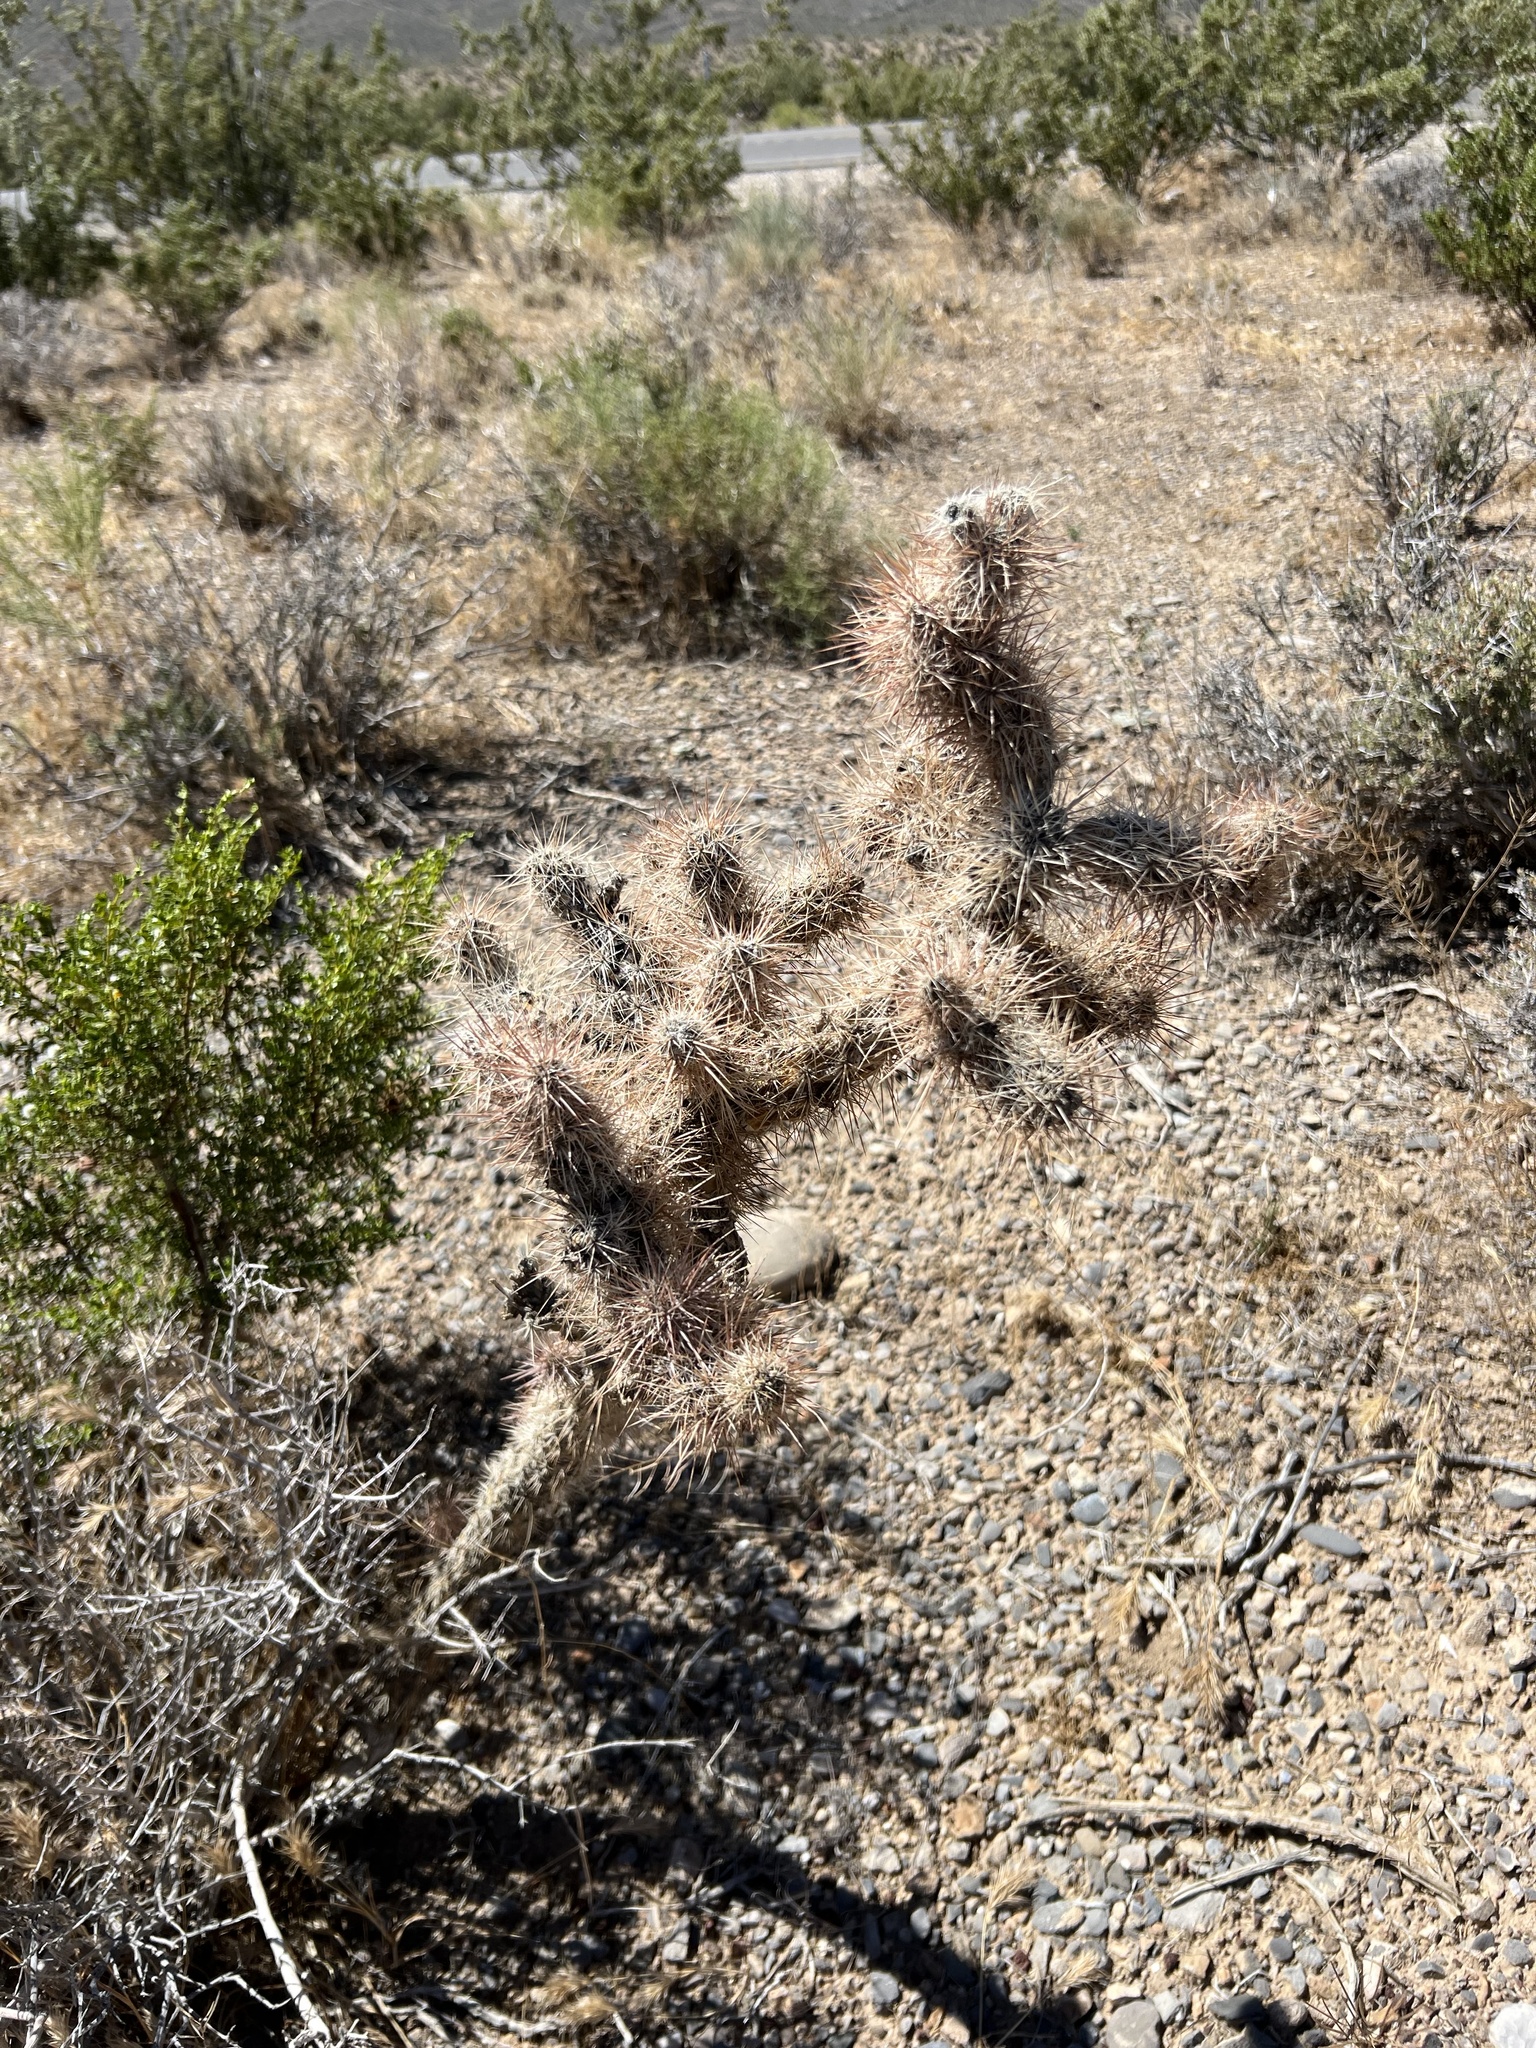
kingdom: Plantae
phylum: Tracheophyta
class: Magnoliopsida
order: Caryophyllales
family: Cactaceae
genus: Cylindropuntia
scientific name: Cylindropuntia echinocarpa
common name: Ground cholla
